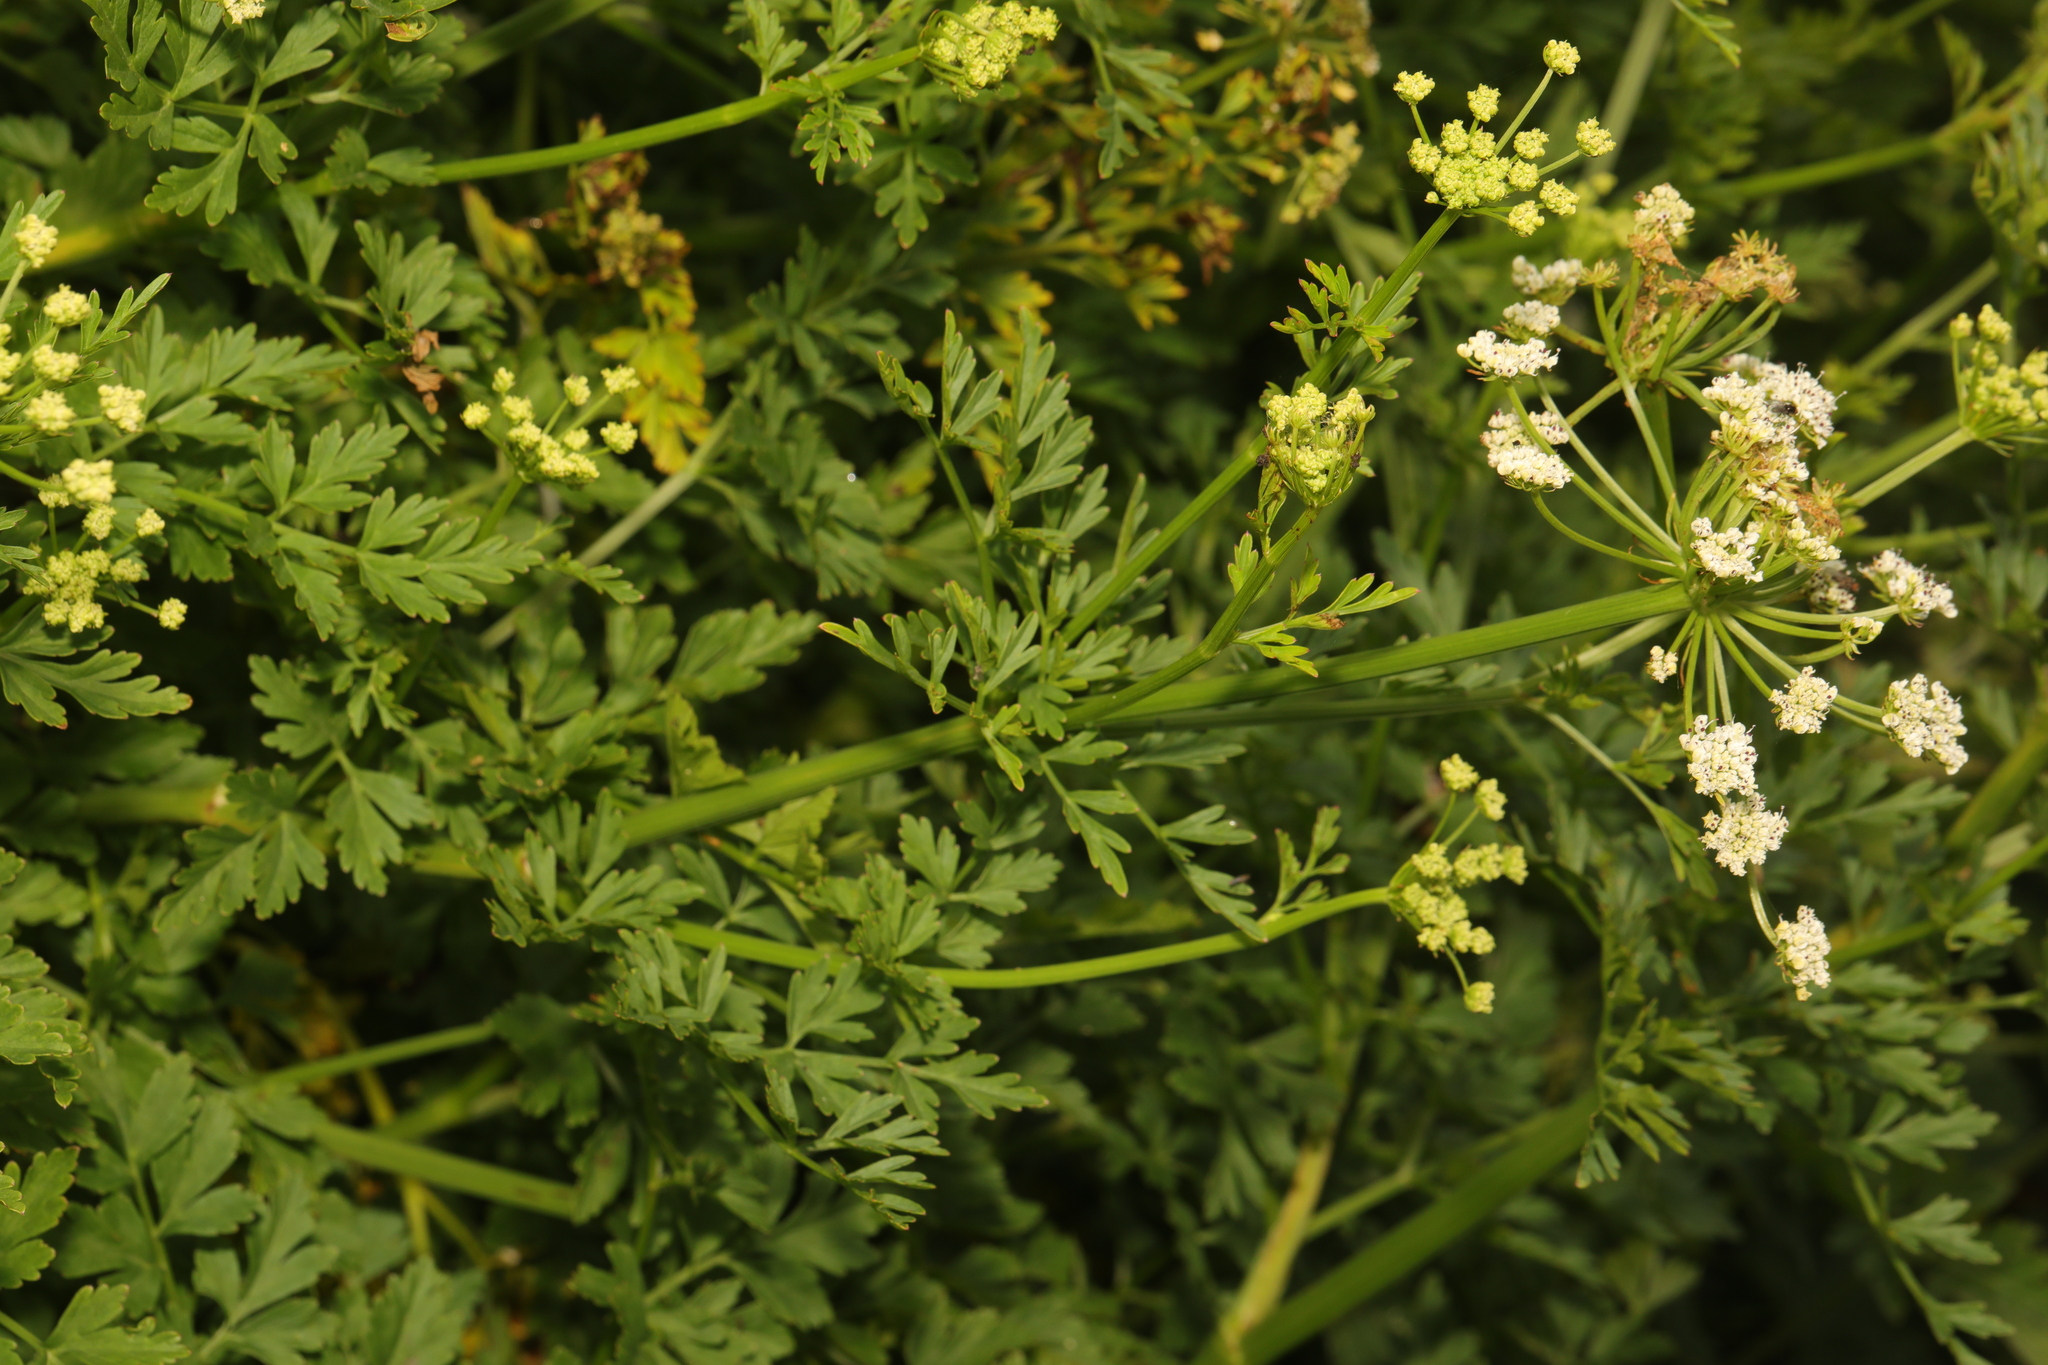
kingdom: Plantae
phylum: Tracheophyta
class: Magnoliopsida
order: Apiales
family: Apiaceae
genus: Oenanthe
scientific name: Oenanthe crocata
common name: Hemlock water-dropwort
